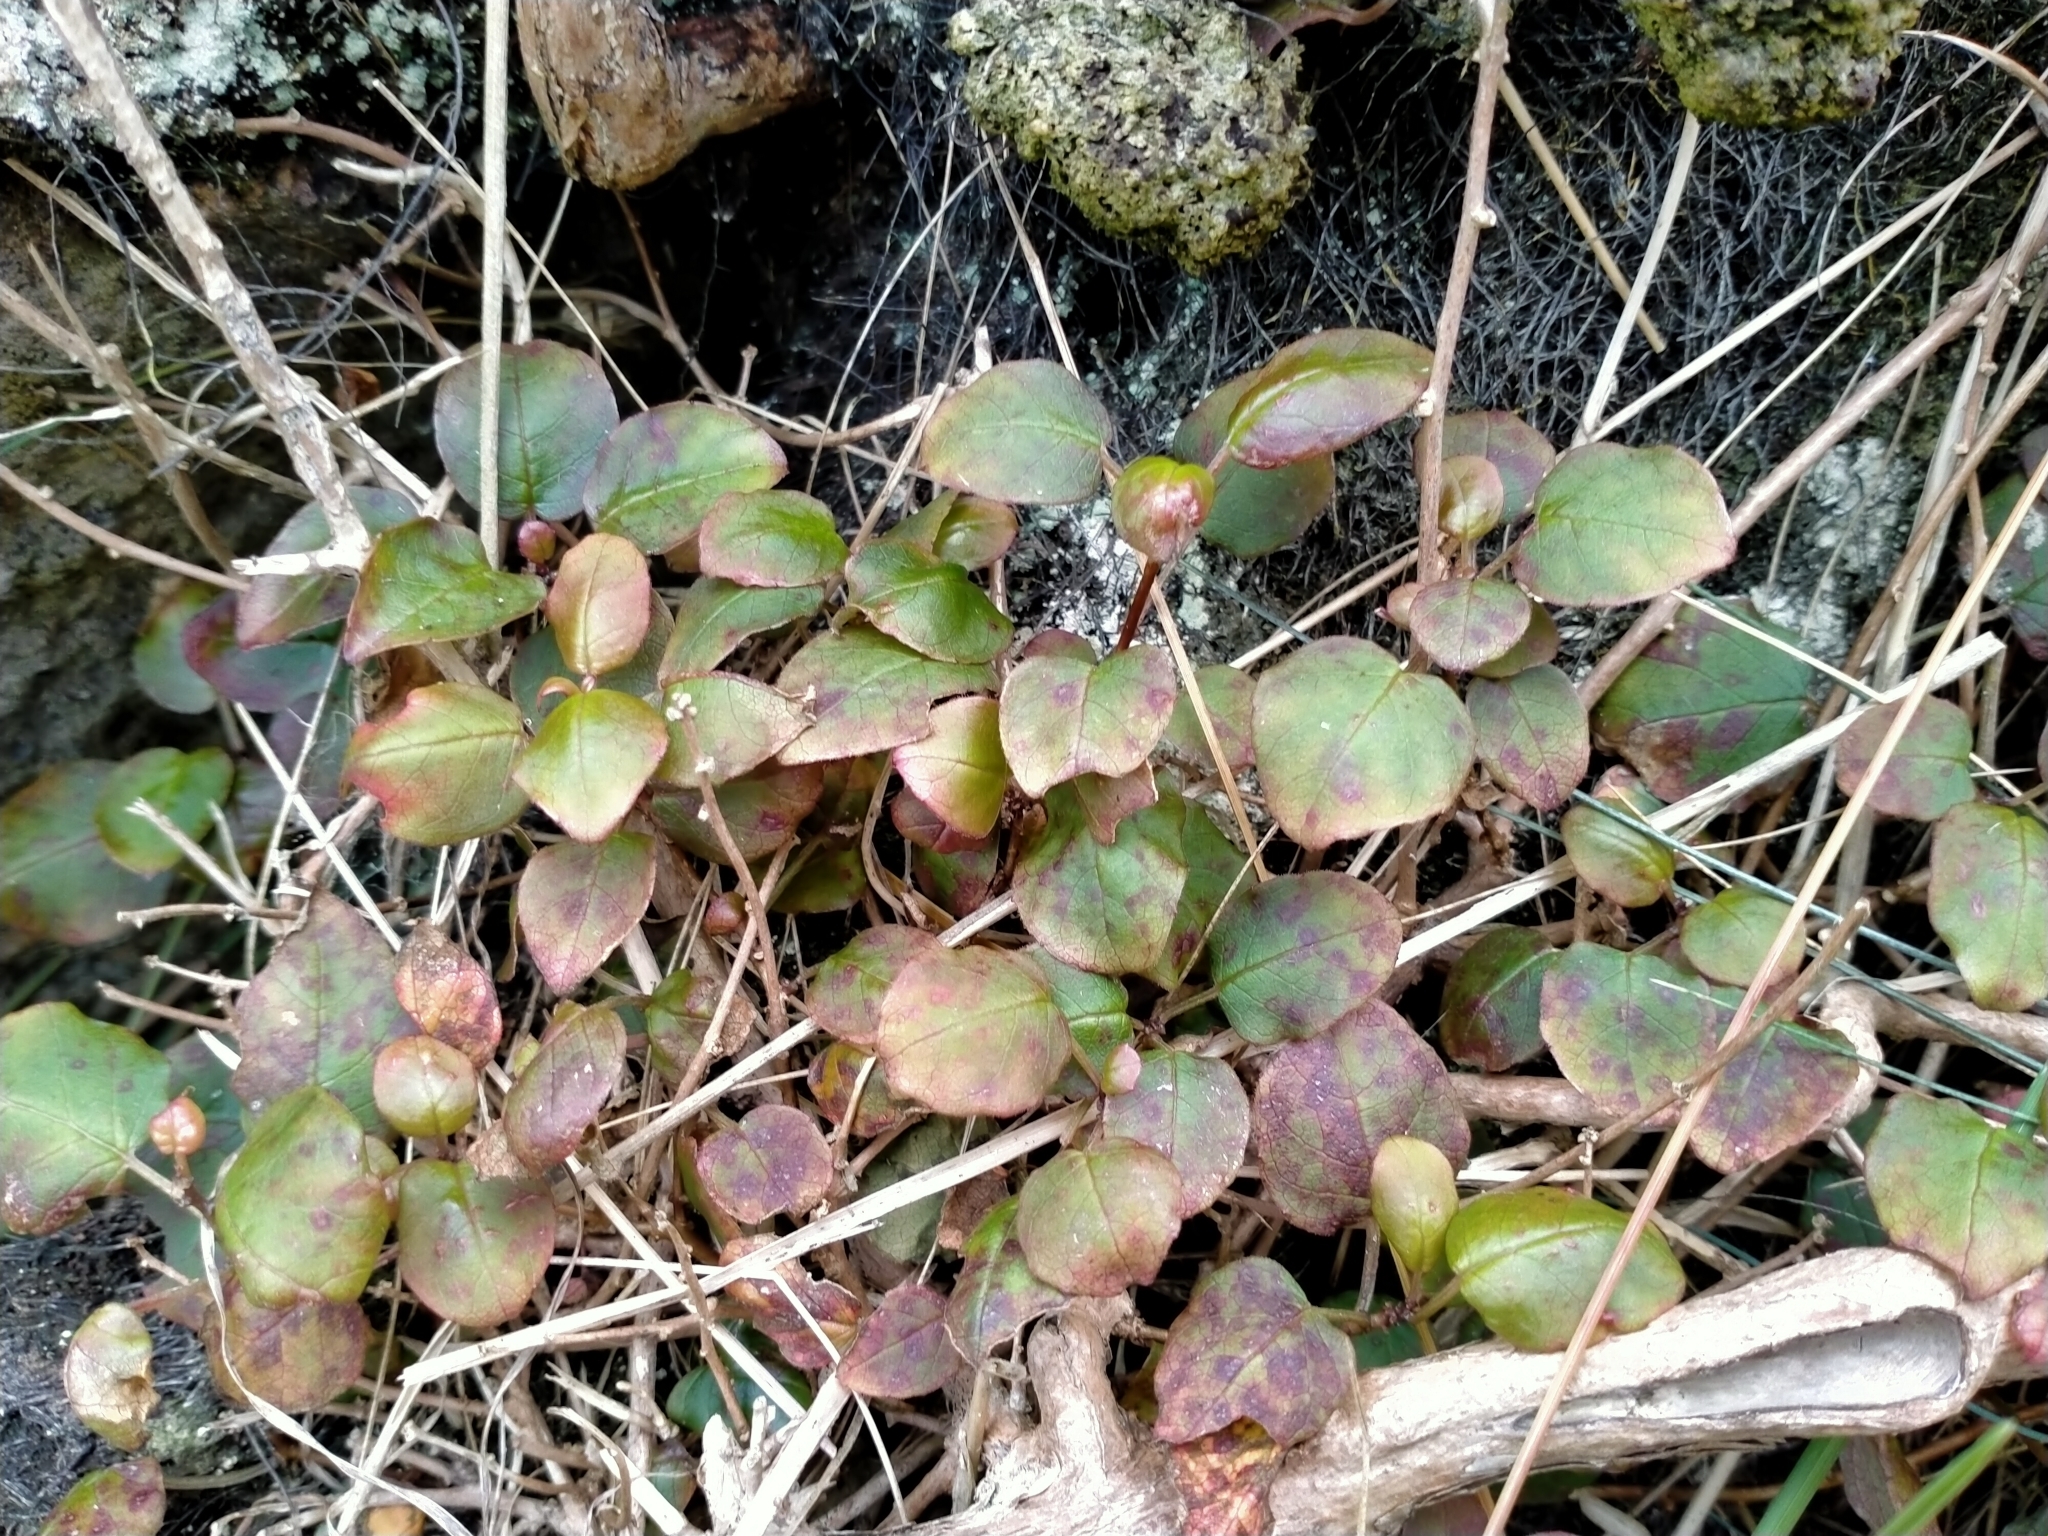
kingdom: Plantae
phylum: Tracheophyta
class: Magnoliopsida
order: Myrtales
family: Onagraceae
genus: Fuchsia
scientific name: Fuchsia perscandens
